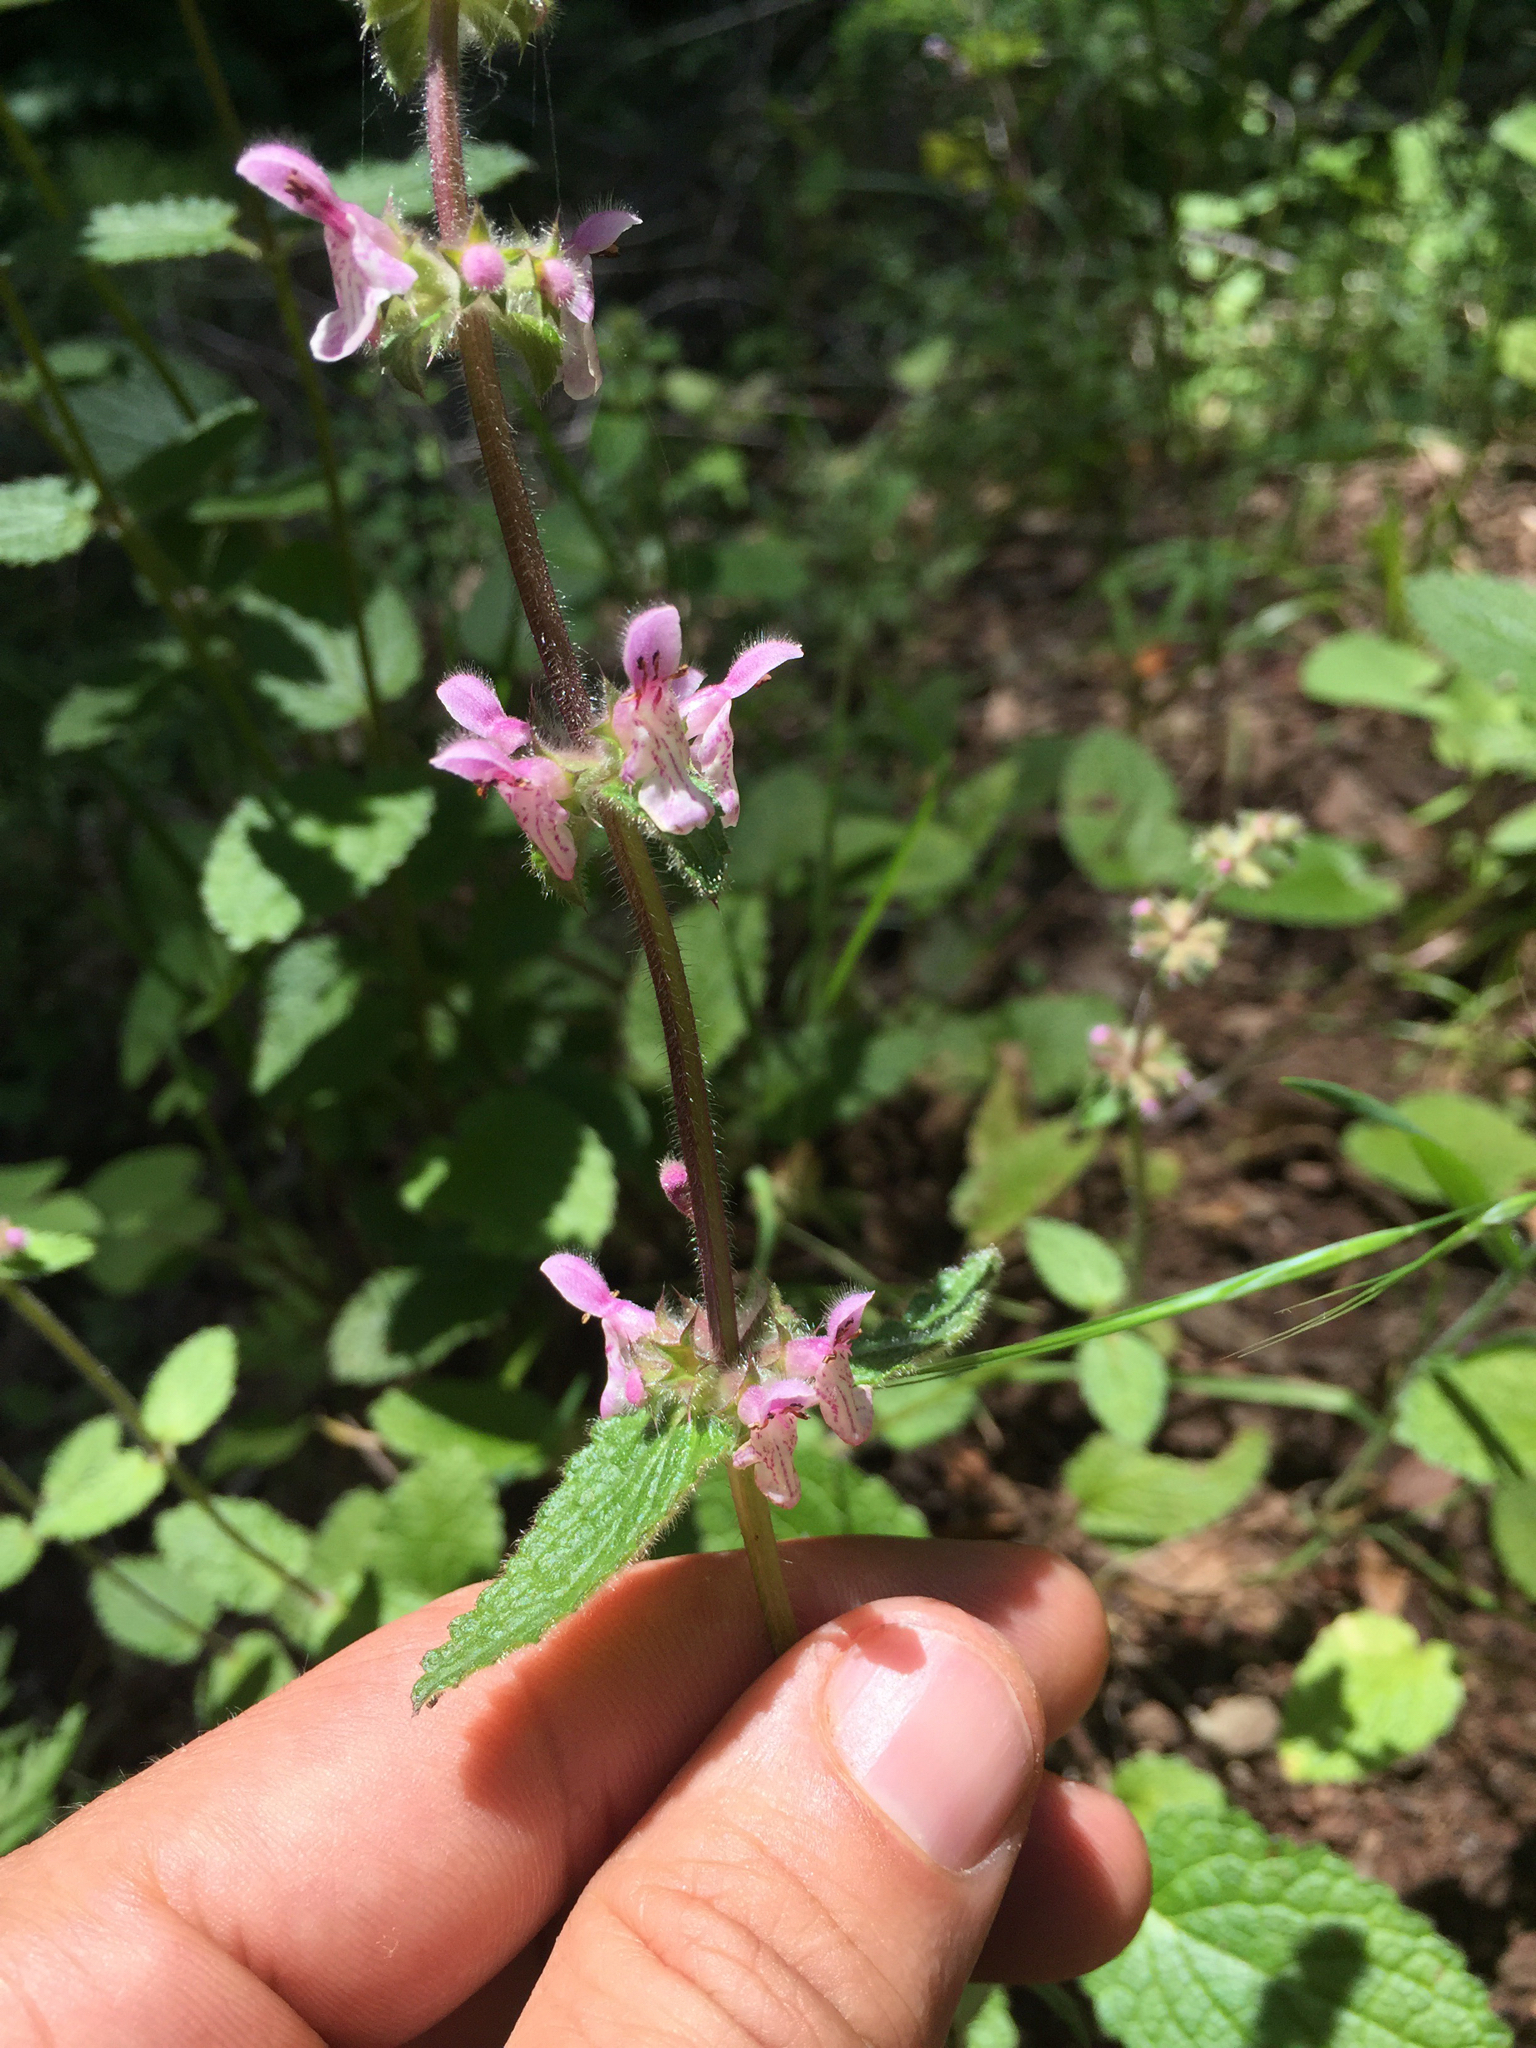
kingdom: Plantae
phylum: Tracheophyta
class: Magnoliopsida
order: Lamiales
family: Lamiaceae
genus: Stachys
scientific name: Stachys rigida
